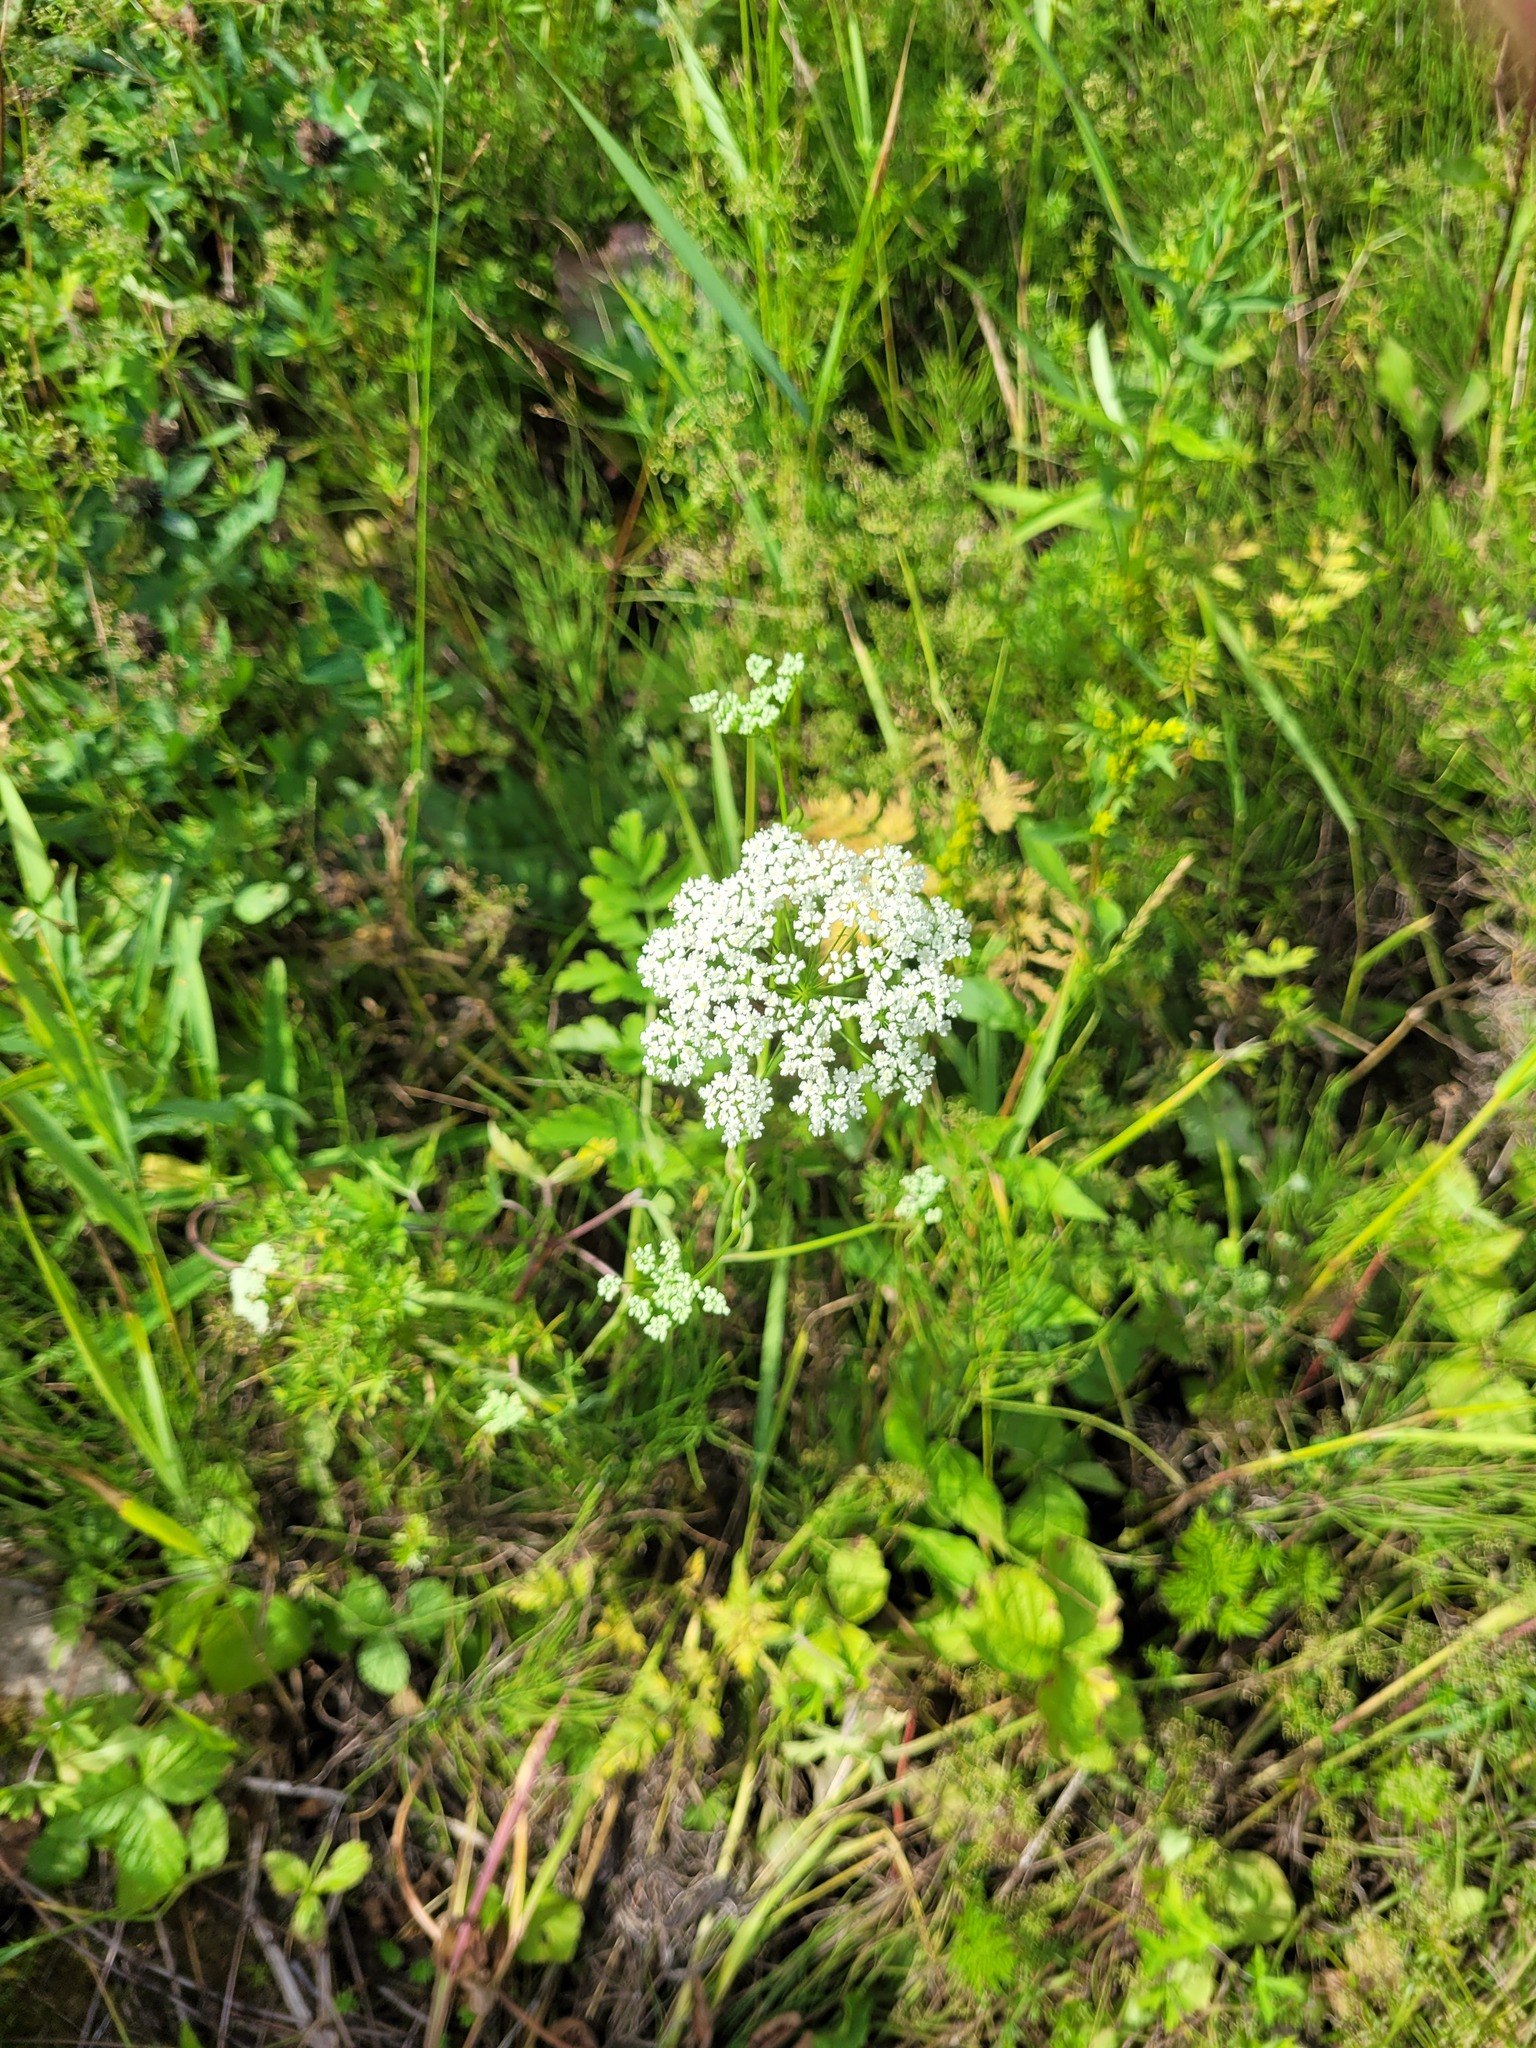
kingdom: Plantae
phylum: Tracheophyta
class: Magnoliopsida
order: Apiales
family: Apiaceae
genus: Pimpinella
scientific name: Pimpinella saxifraga
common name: Burnet-saxifrage
